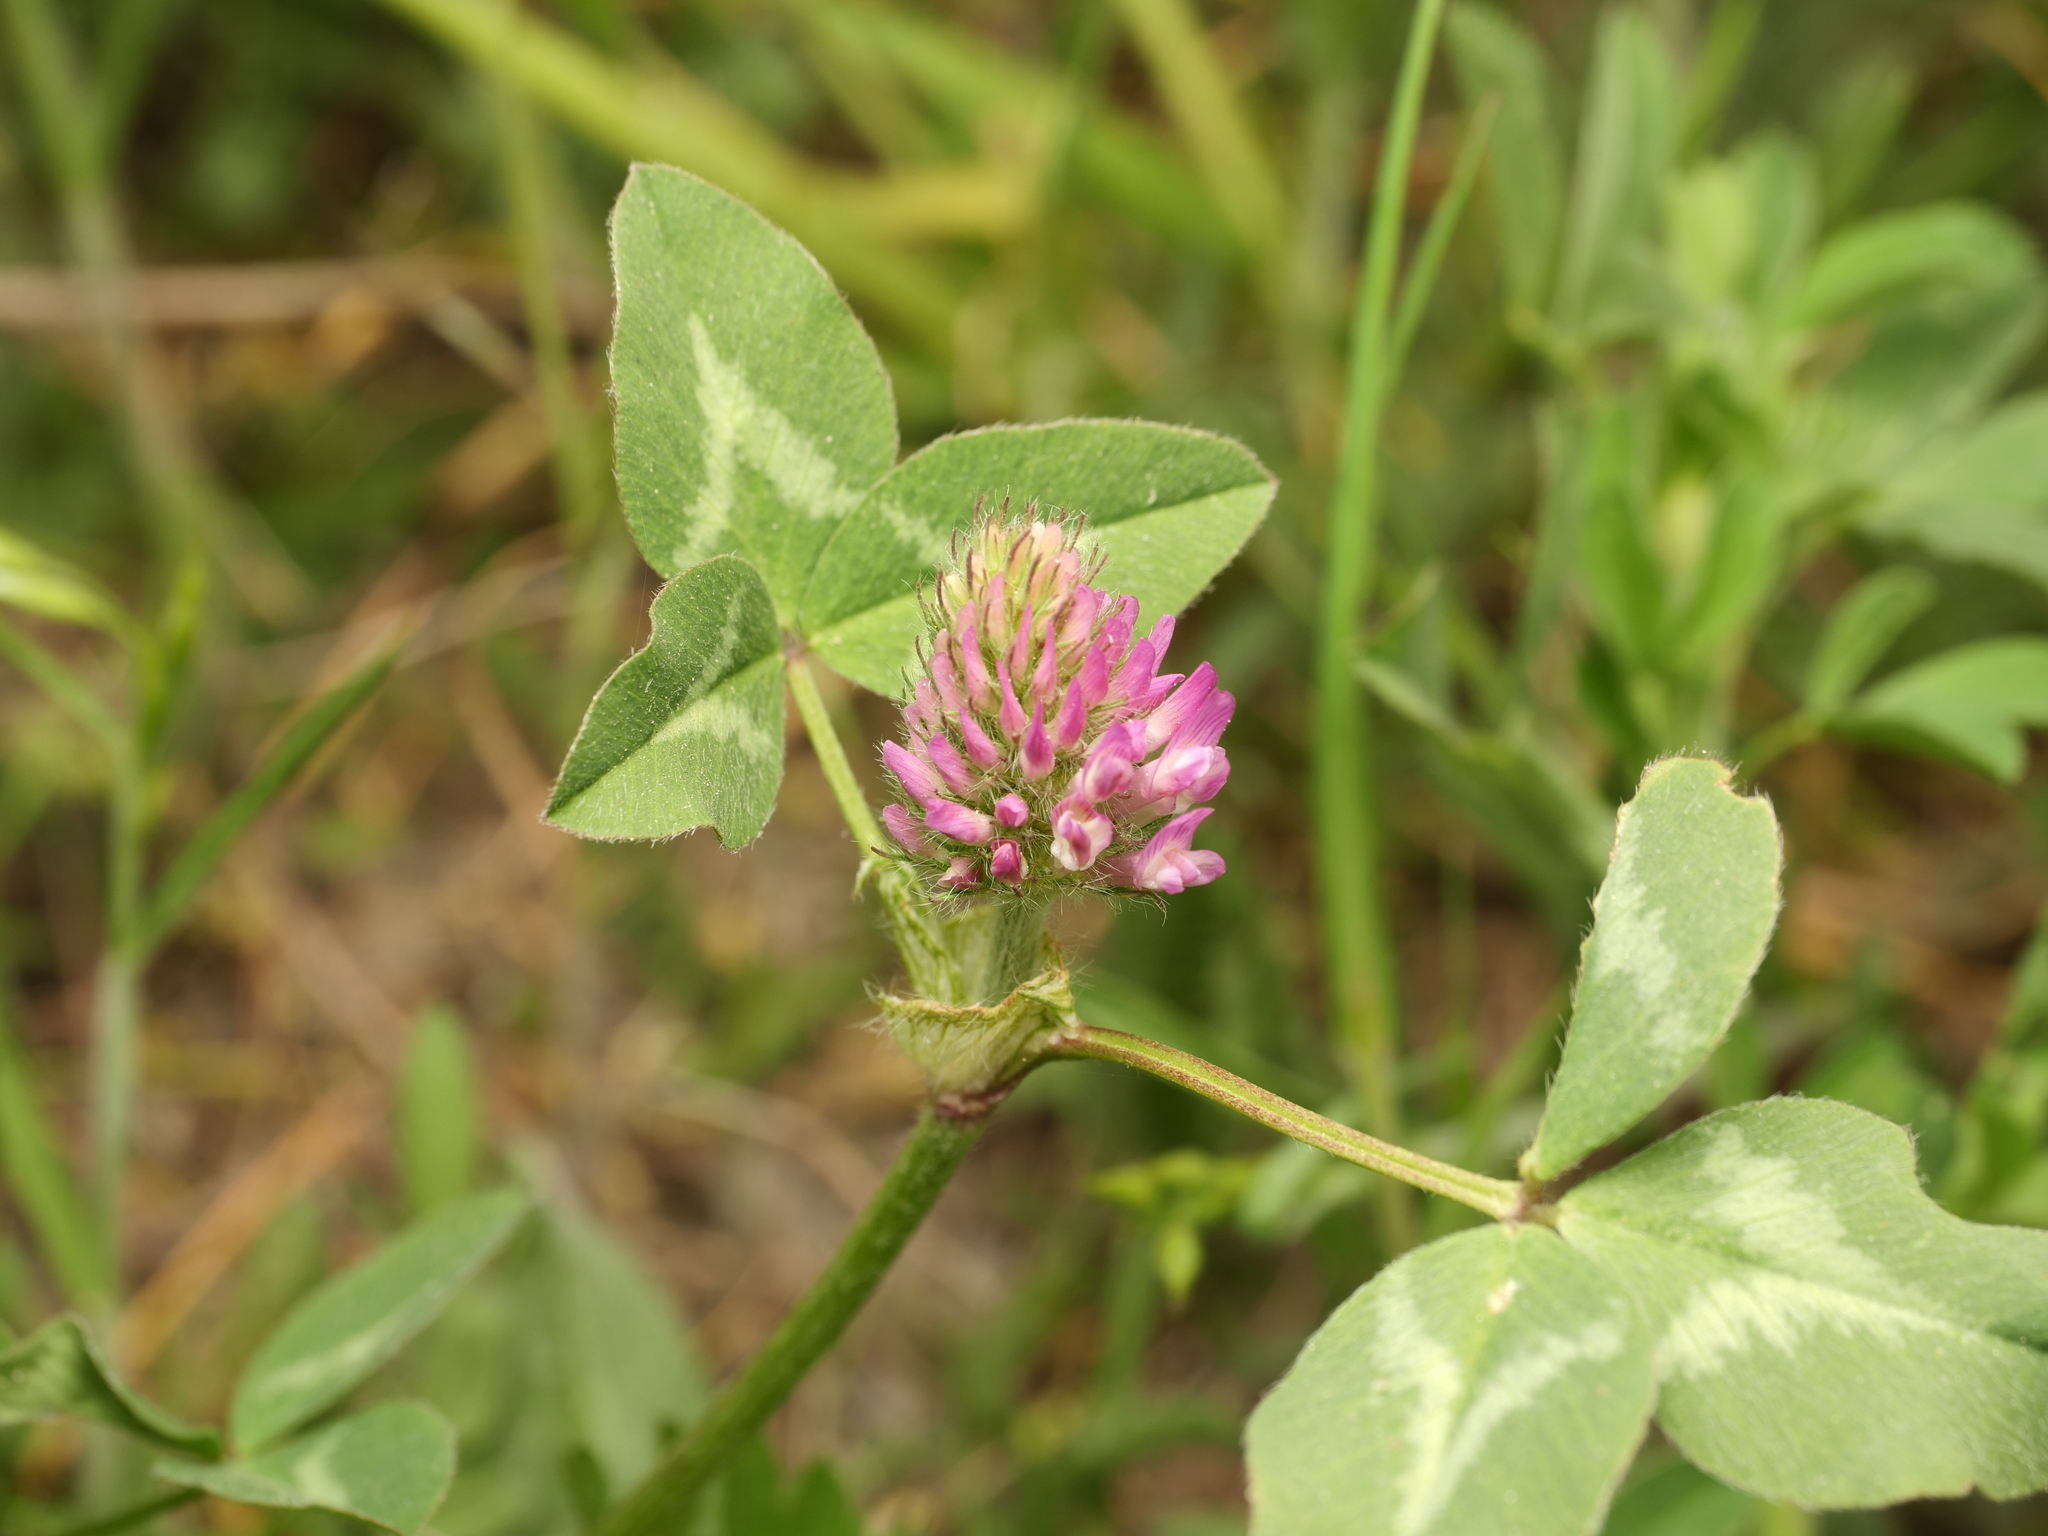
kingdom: Plantae
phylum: Tracheophyta
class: Magnoliopsida
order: Fabales
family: Fabaceae
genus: Trifolium
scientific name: Trifolium pratense
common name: Red clover
